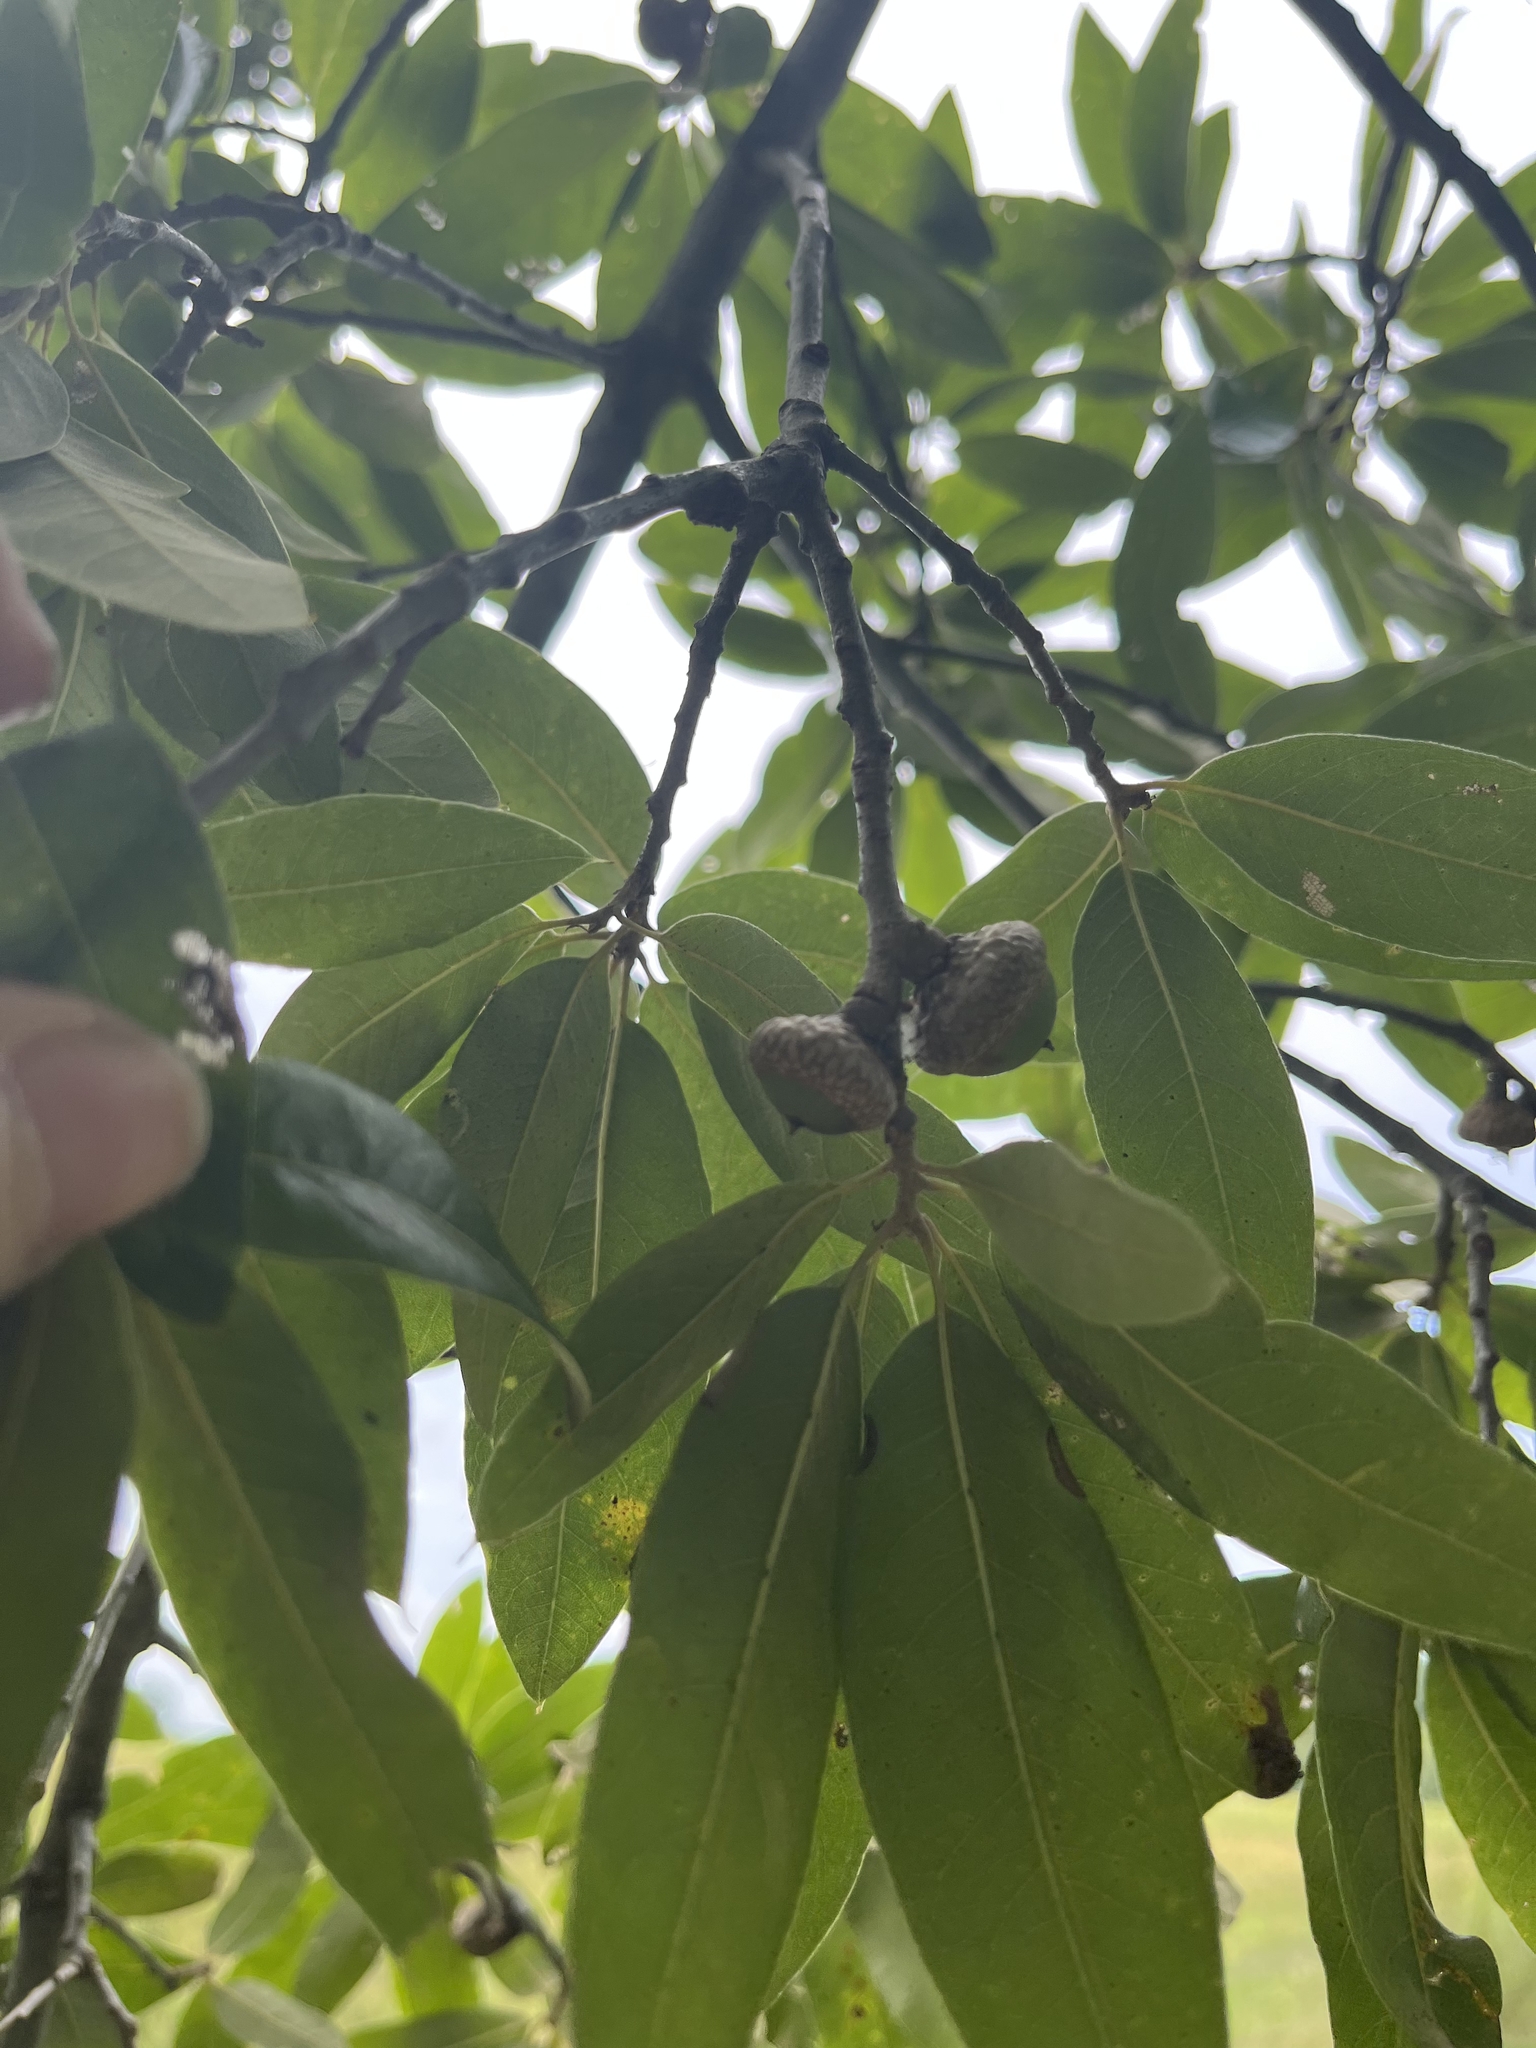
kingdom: Plantae
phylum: Tracheophyta
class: Magnoliopsida
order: Fagales
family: Fagaceae
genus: Quercus
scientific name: Quercus imbricaria
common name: Shingle oak
